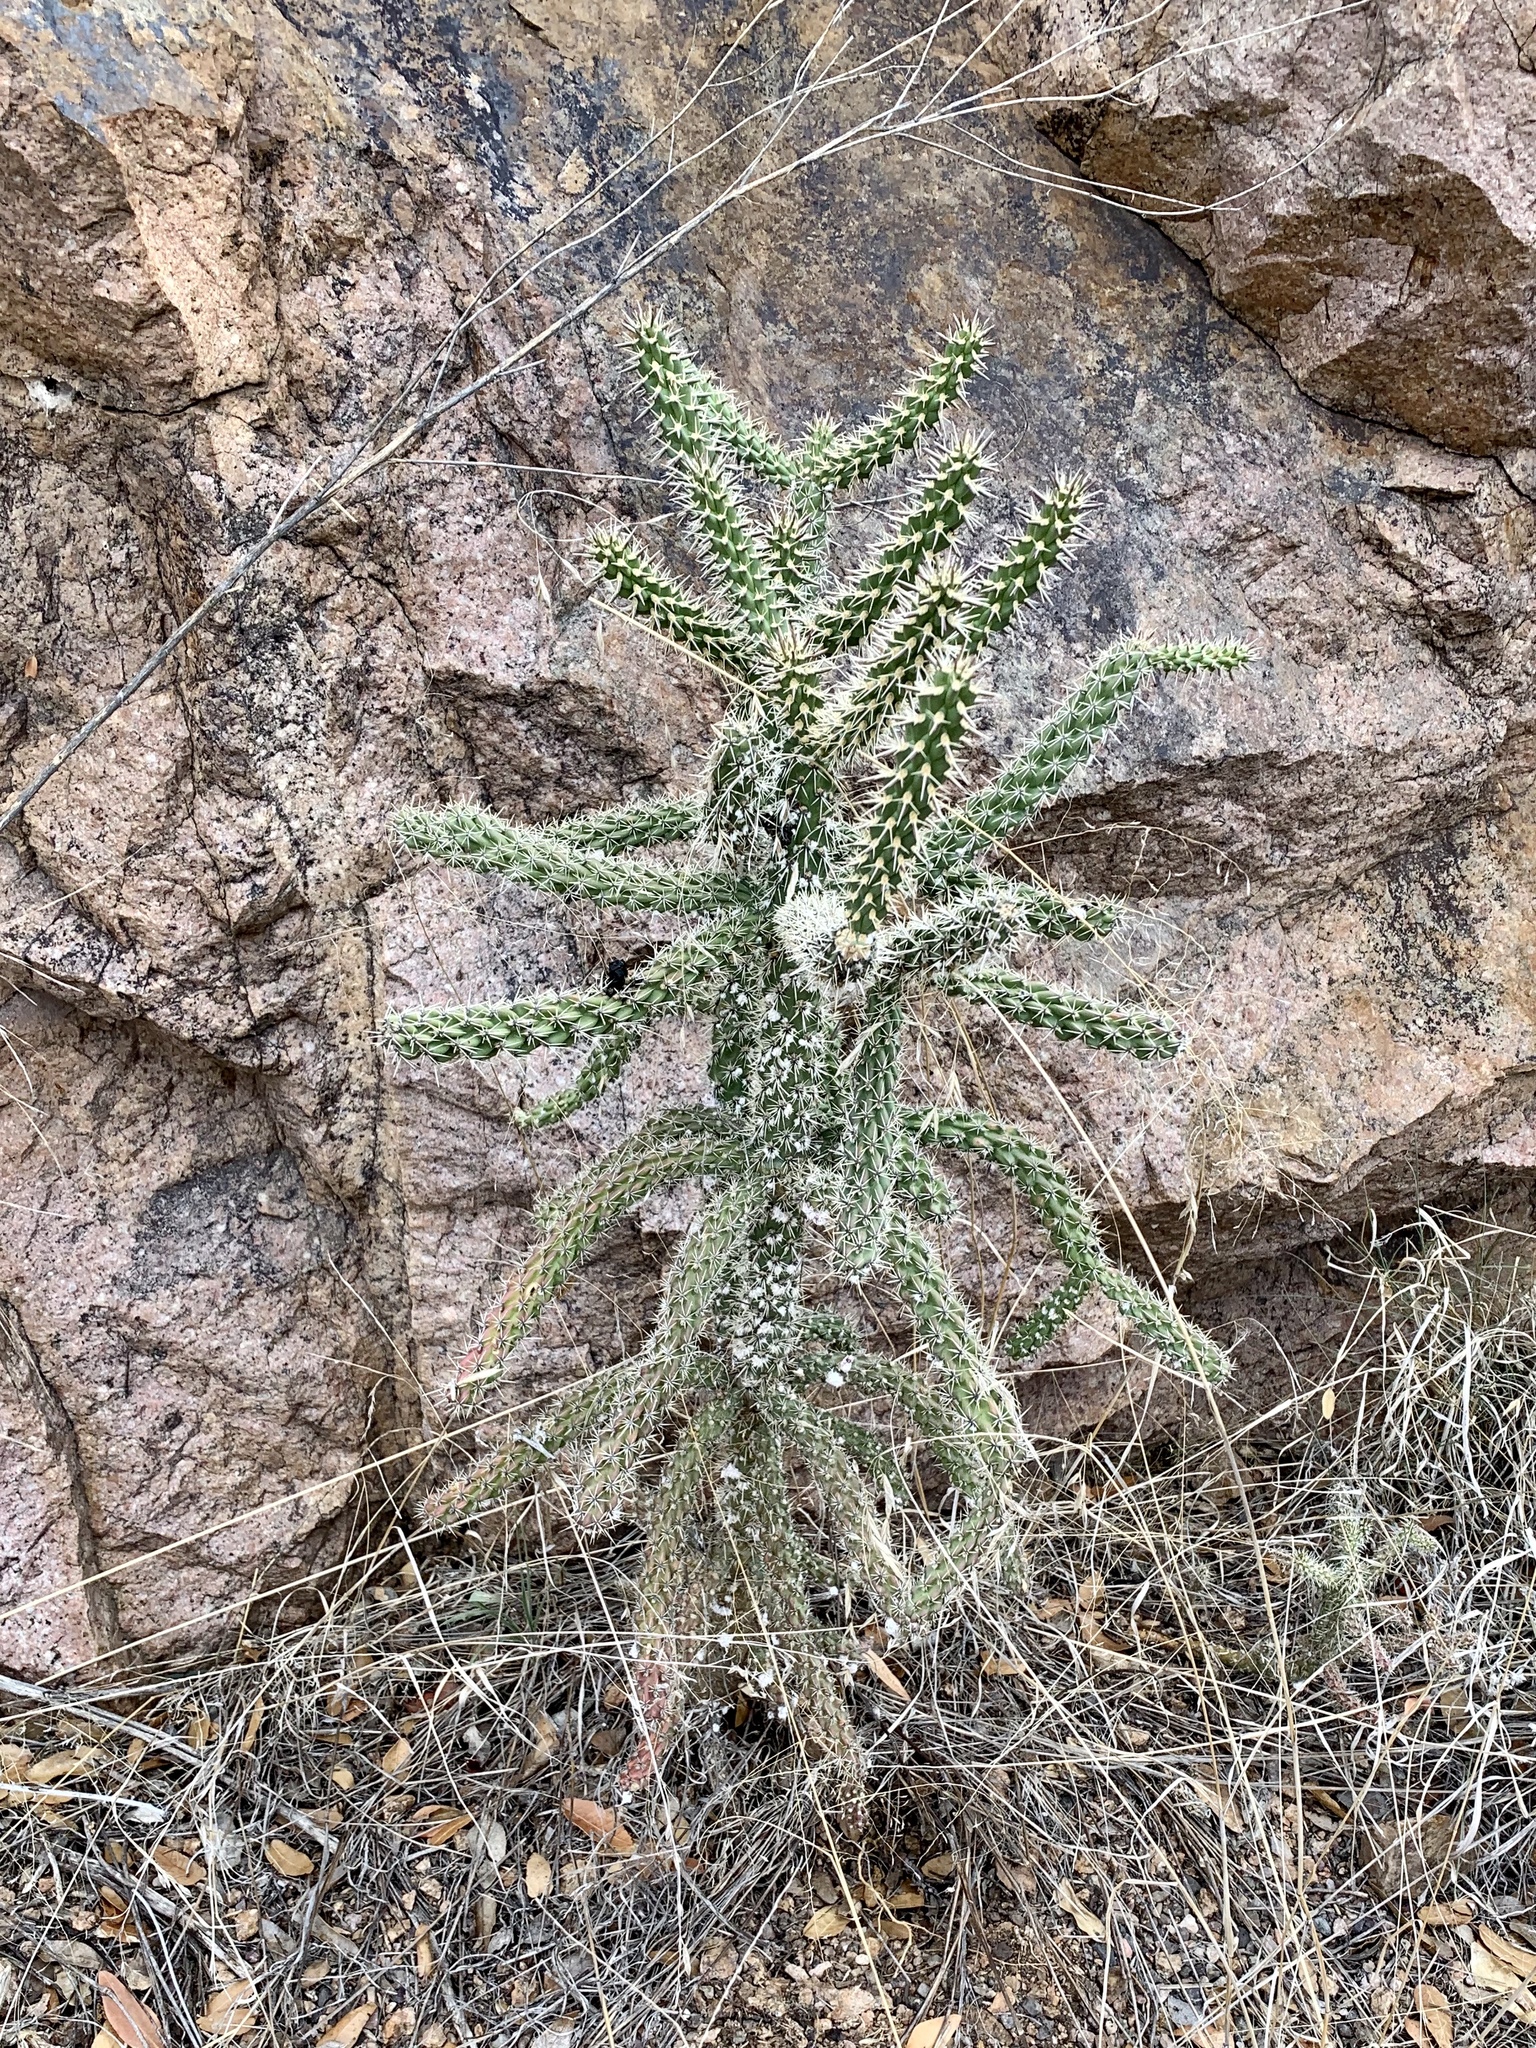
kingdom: Plantae
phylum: Tracheophyta
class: Magnoliopsida
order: Caryophyllales
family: Cactaceae
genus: Cylindropuntia
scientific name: Cylindropuntia imbricata
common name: Candelabrum cactus
